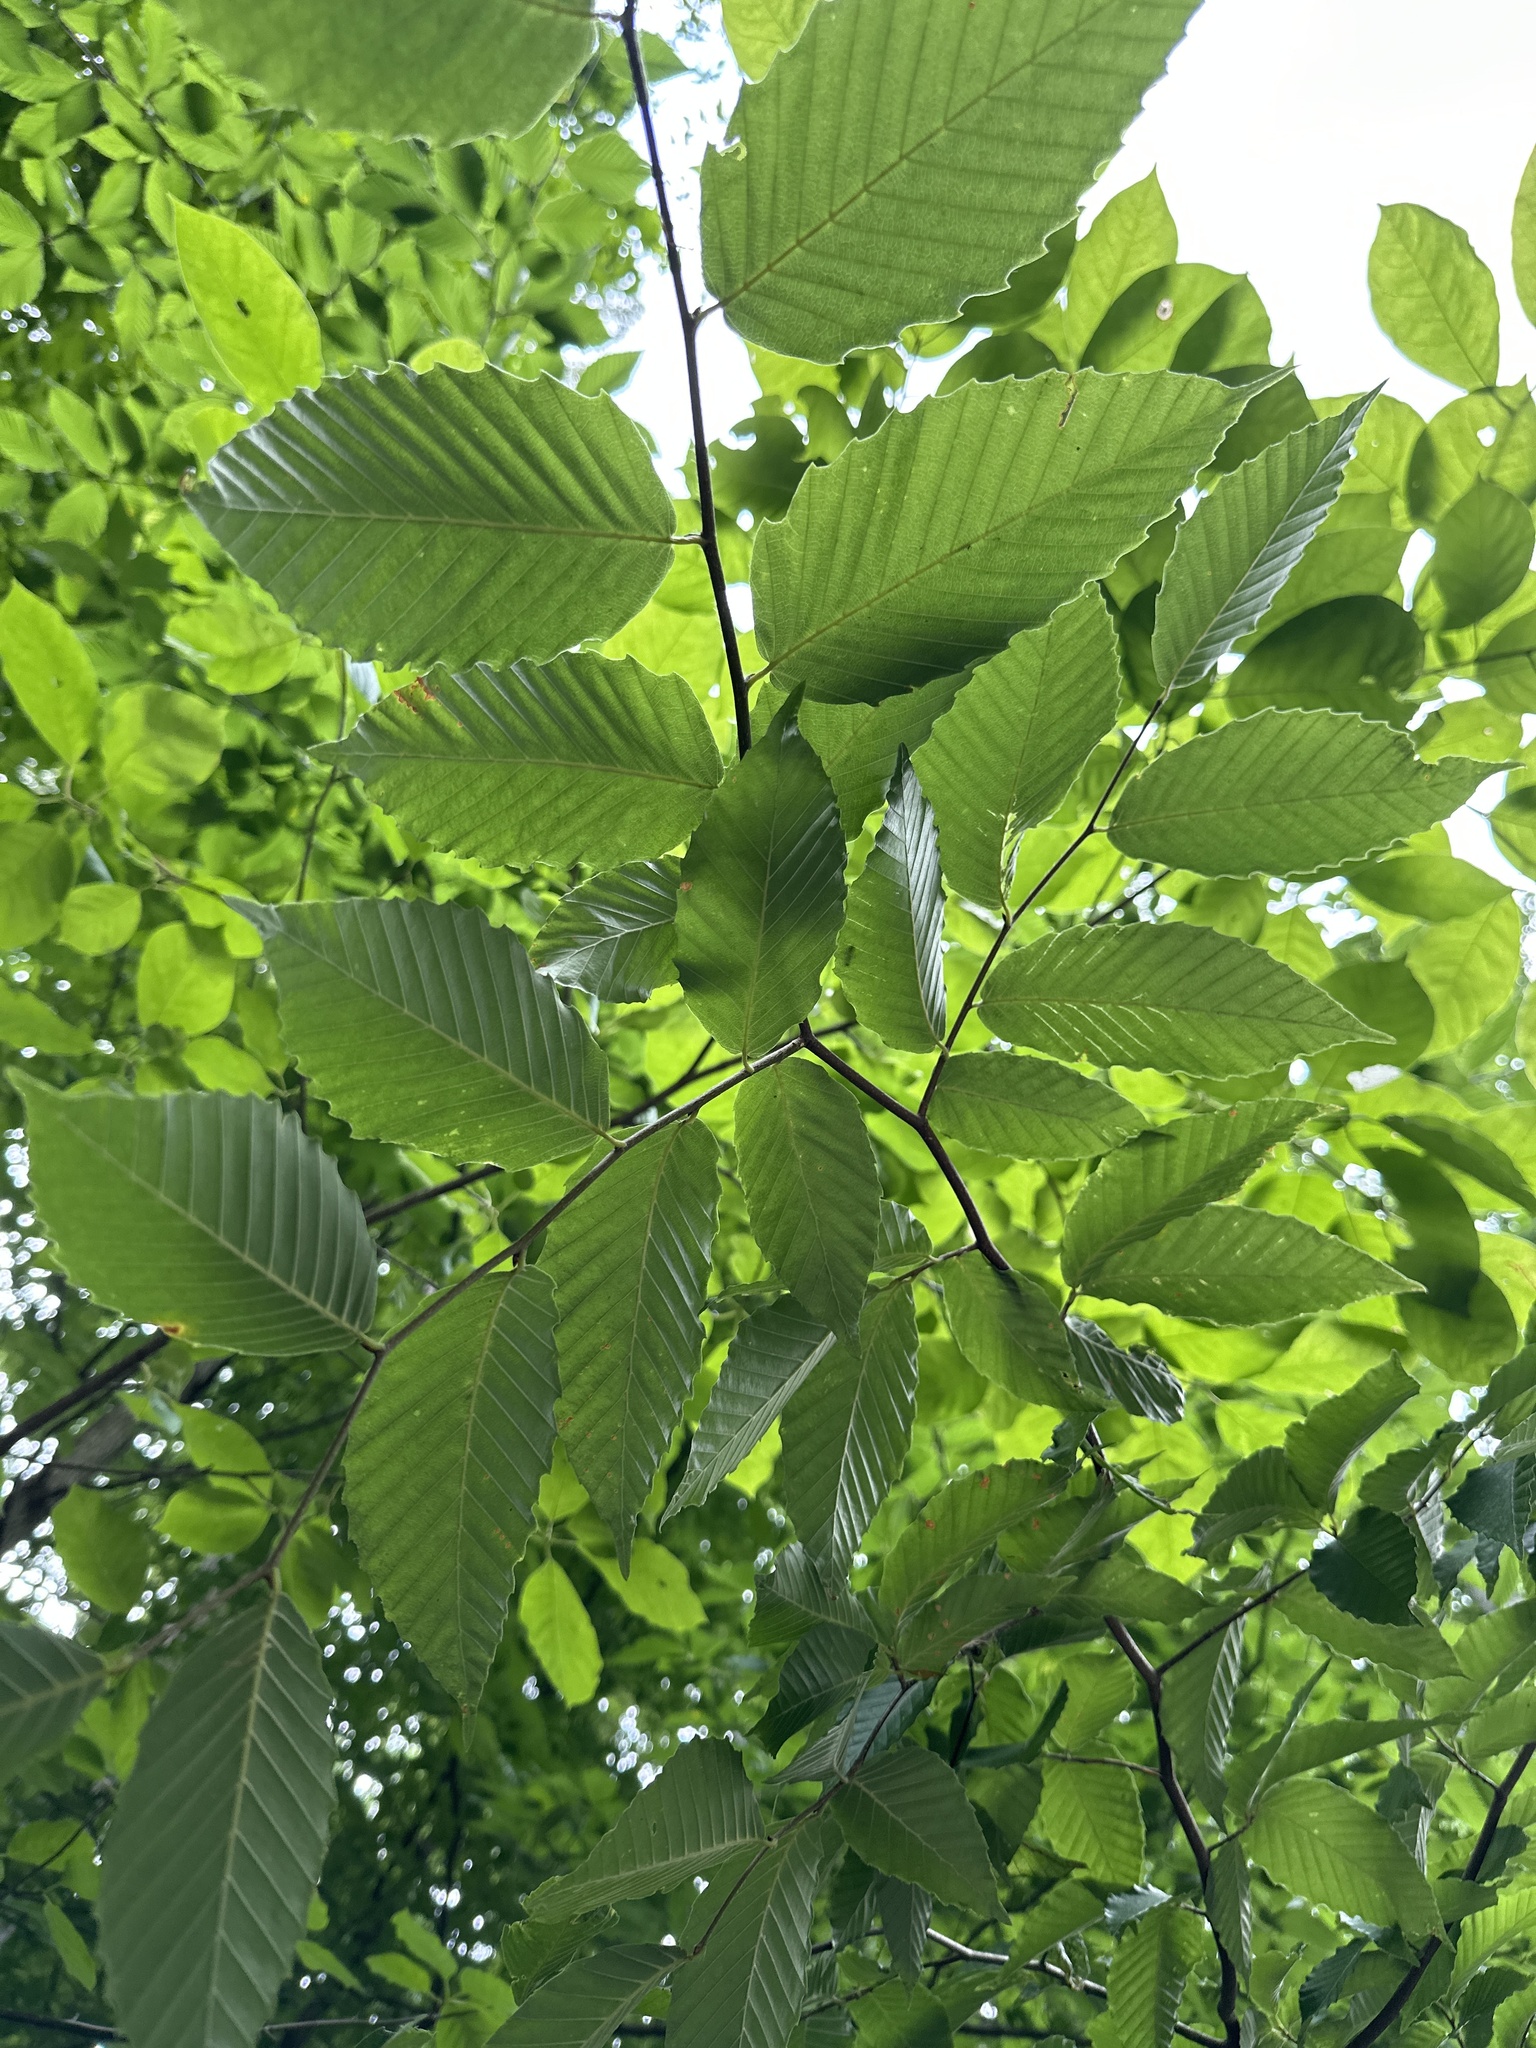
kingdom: Plantae
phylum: Tracheophyta
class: Magnoliopsida
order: Fagales
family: Fagaceae
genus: Fagus
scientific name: Fagus grandifolia
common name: American beech
